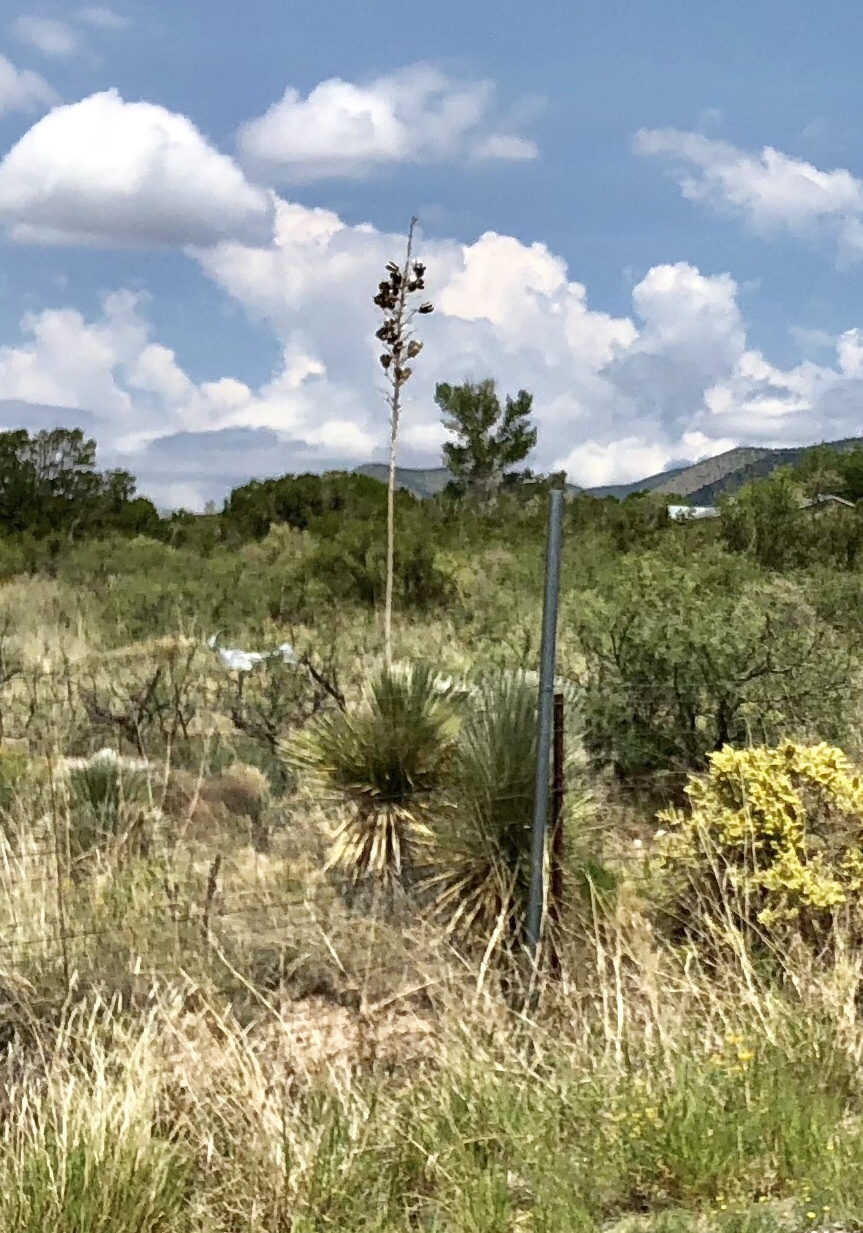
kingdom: Plantae
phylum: Tracheophyta
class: Liliopsida
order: Asparagales
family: Asparagaceae
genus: Yucca
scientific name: Yucca elata
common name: Palmella
